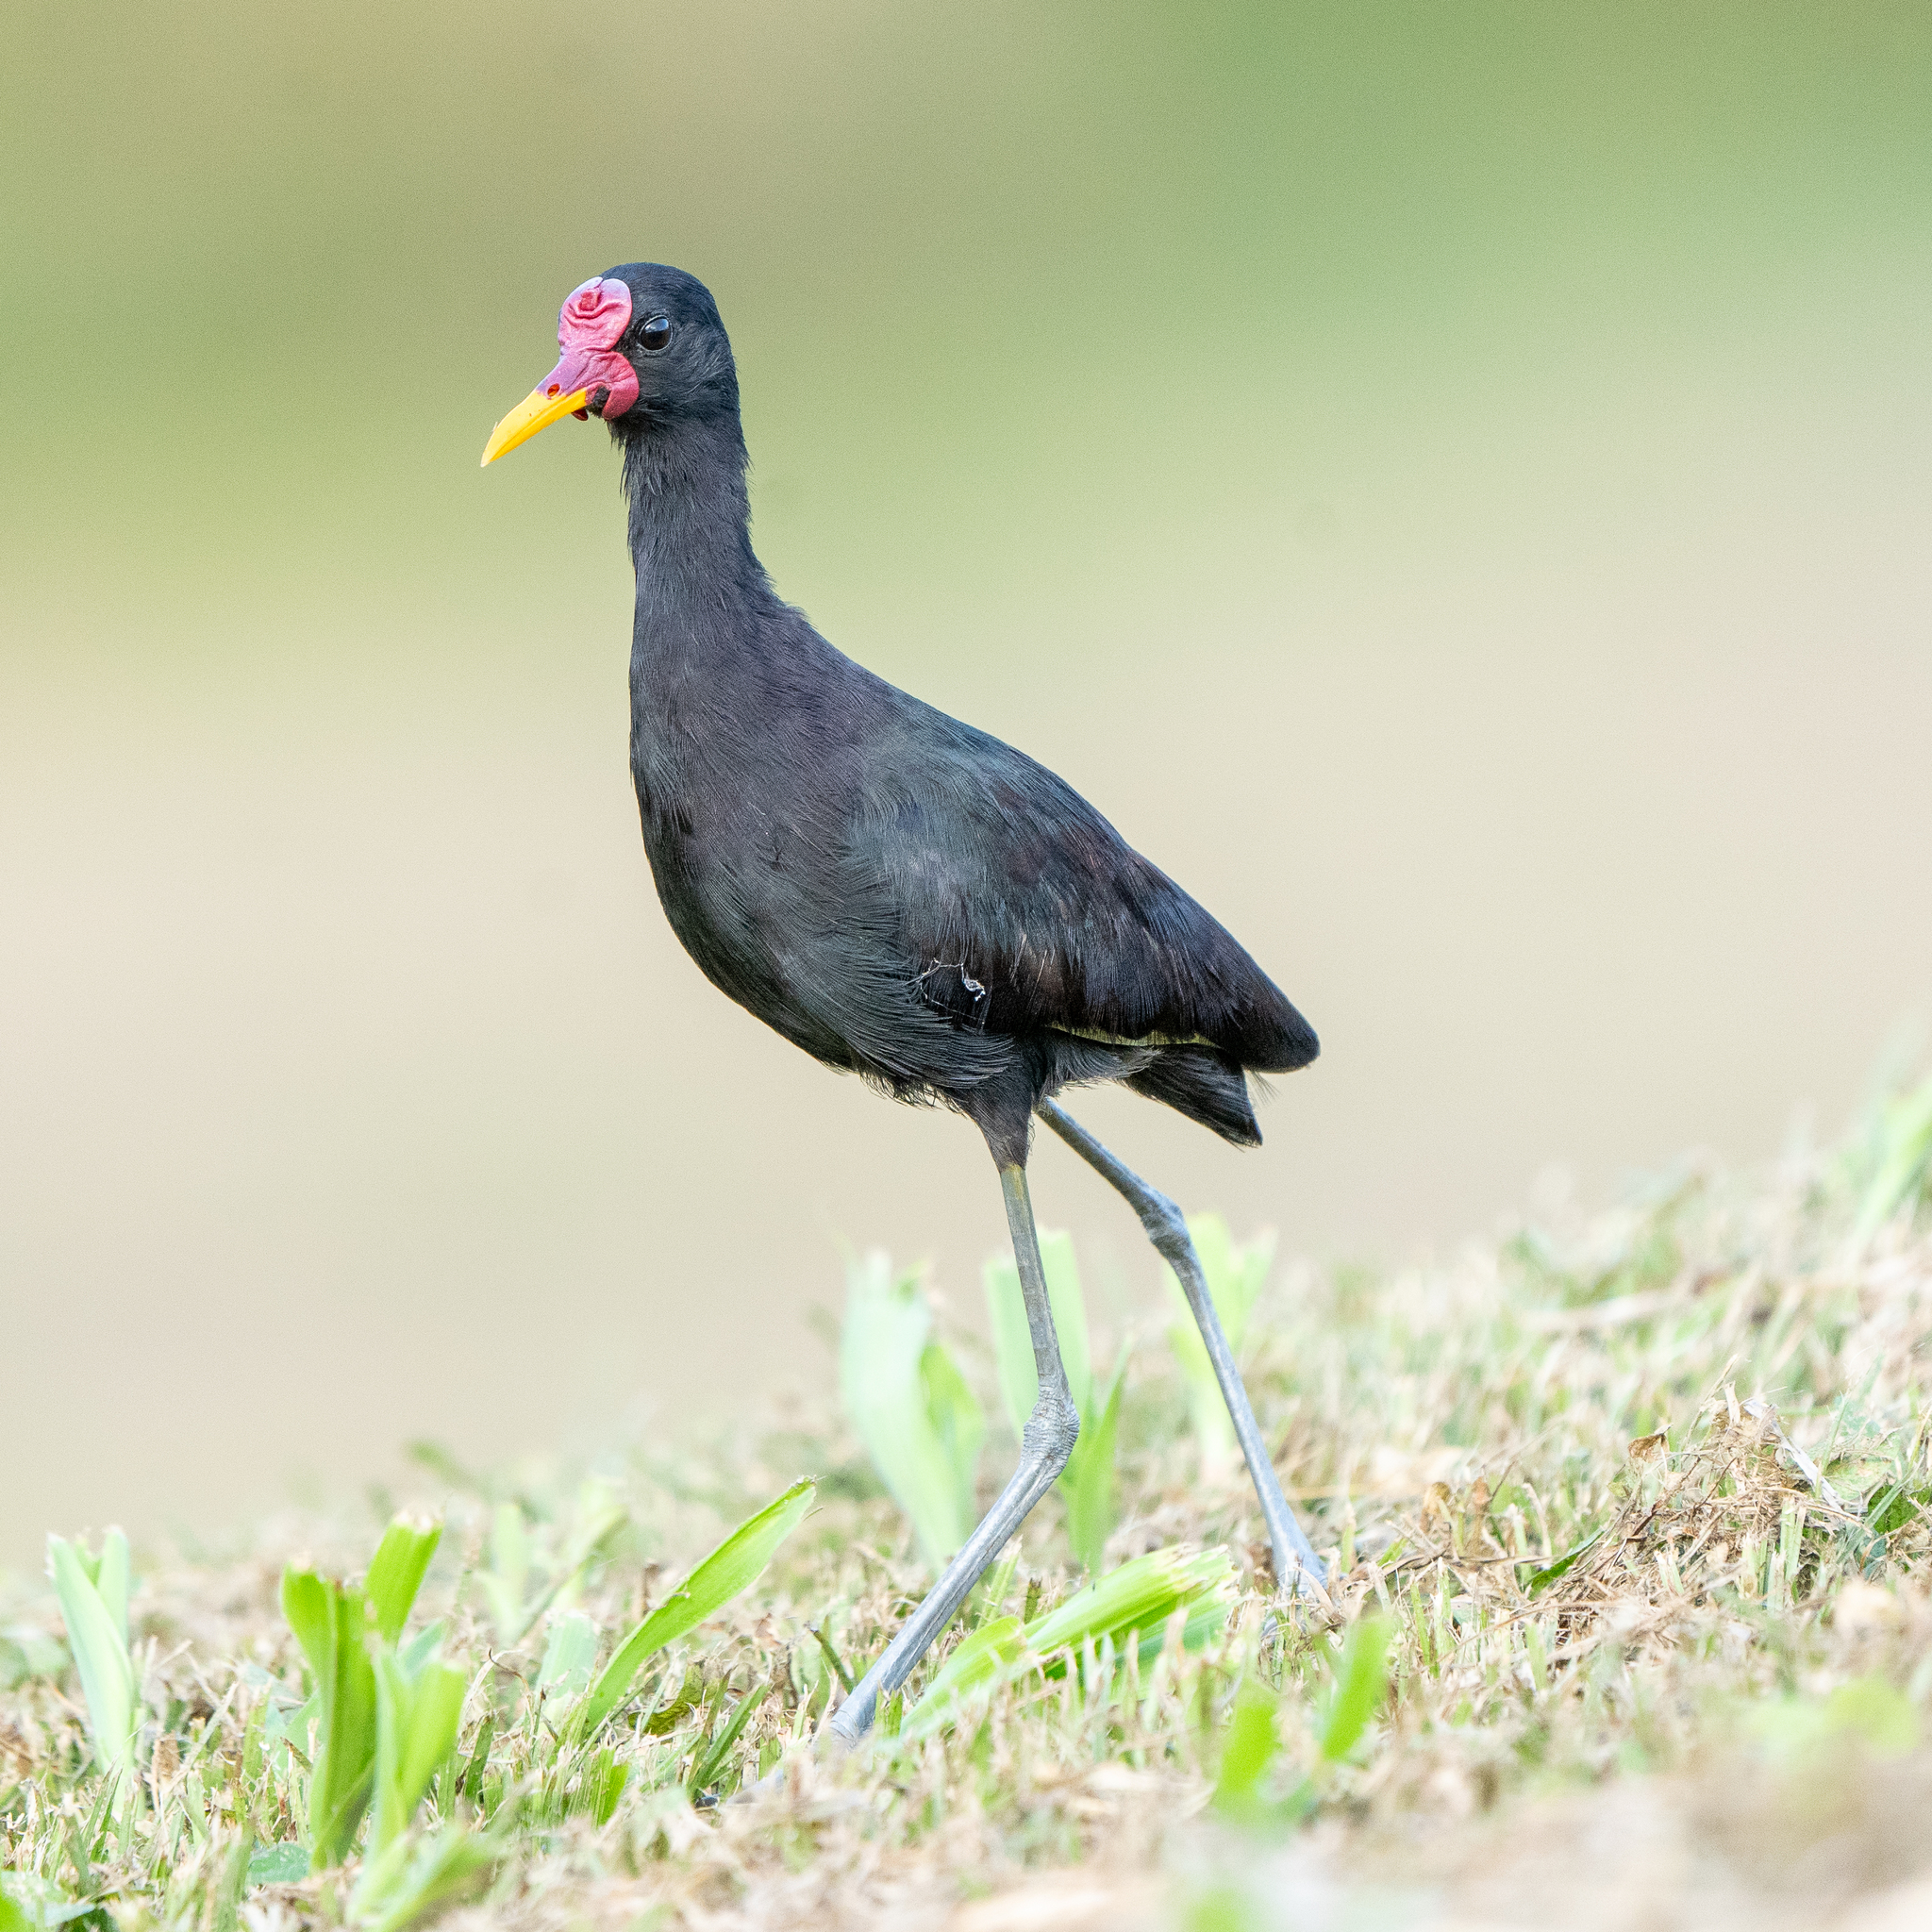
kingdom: Animalia
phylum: Chordata
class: Aves
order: Charadriiformes
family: Jacanidae
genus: Jacana
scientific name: Jacana jacana
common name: Wattled jacana
